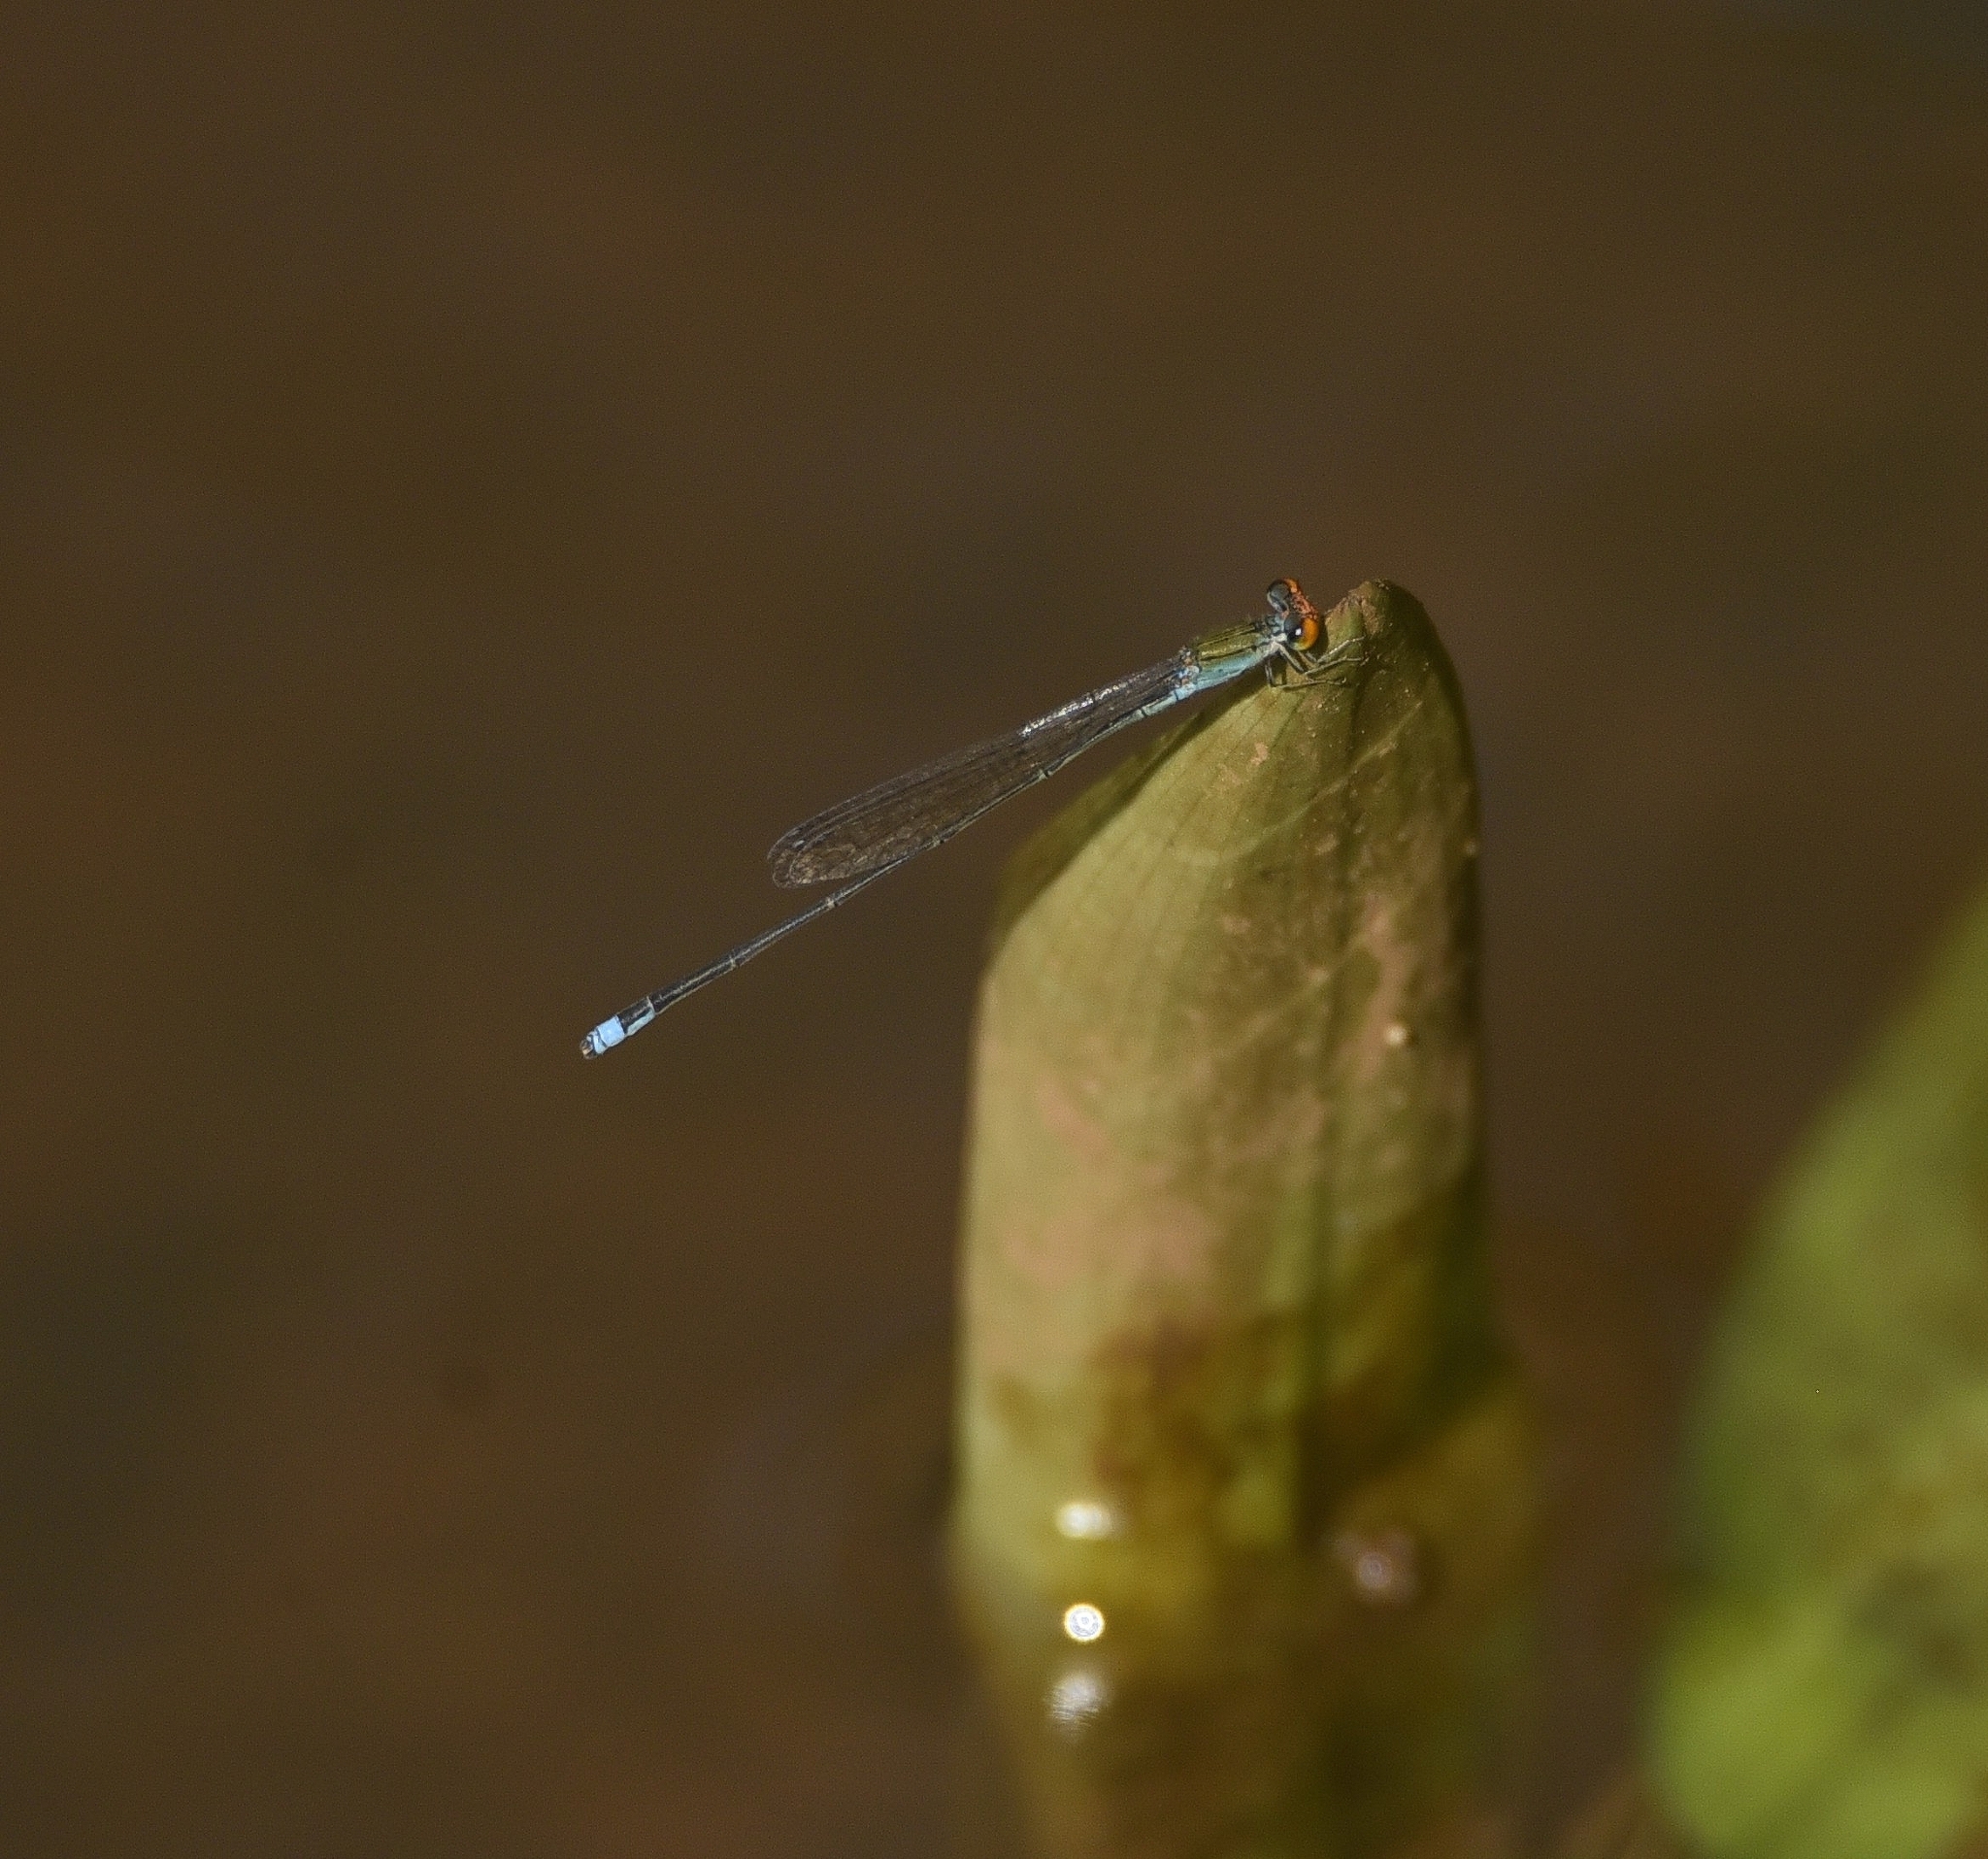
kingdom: Animalia
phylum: Arthropoda
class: Insecta
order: Odonata
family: Coenagrionidae
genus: Pseudagrion
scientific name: Pseudagrion rubriceps
